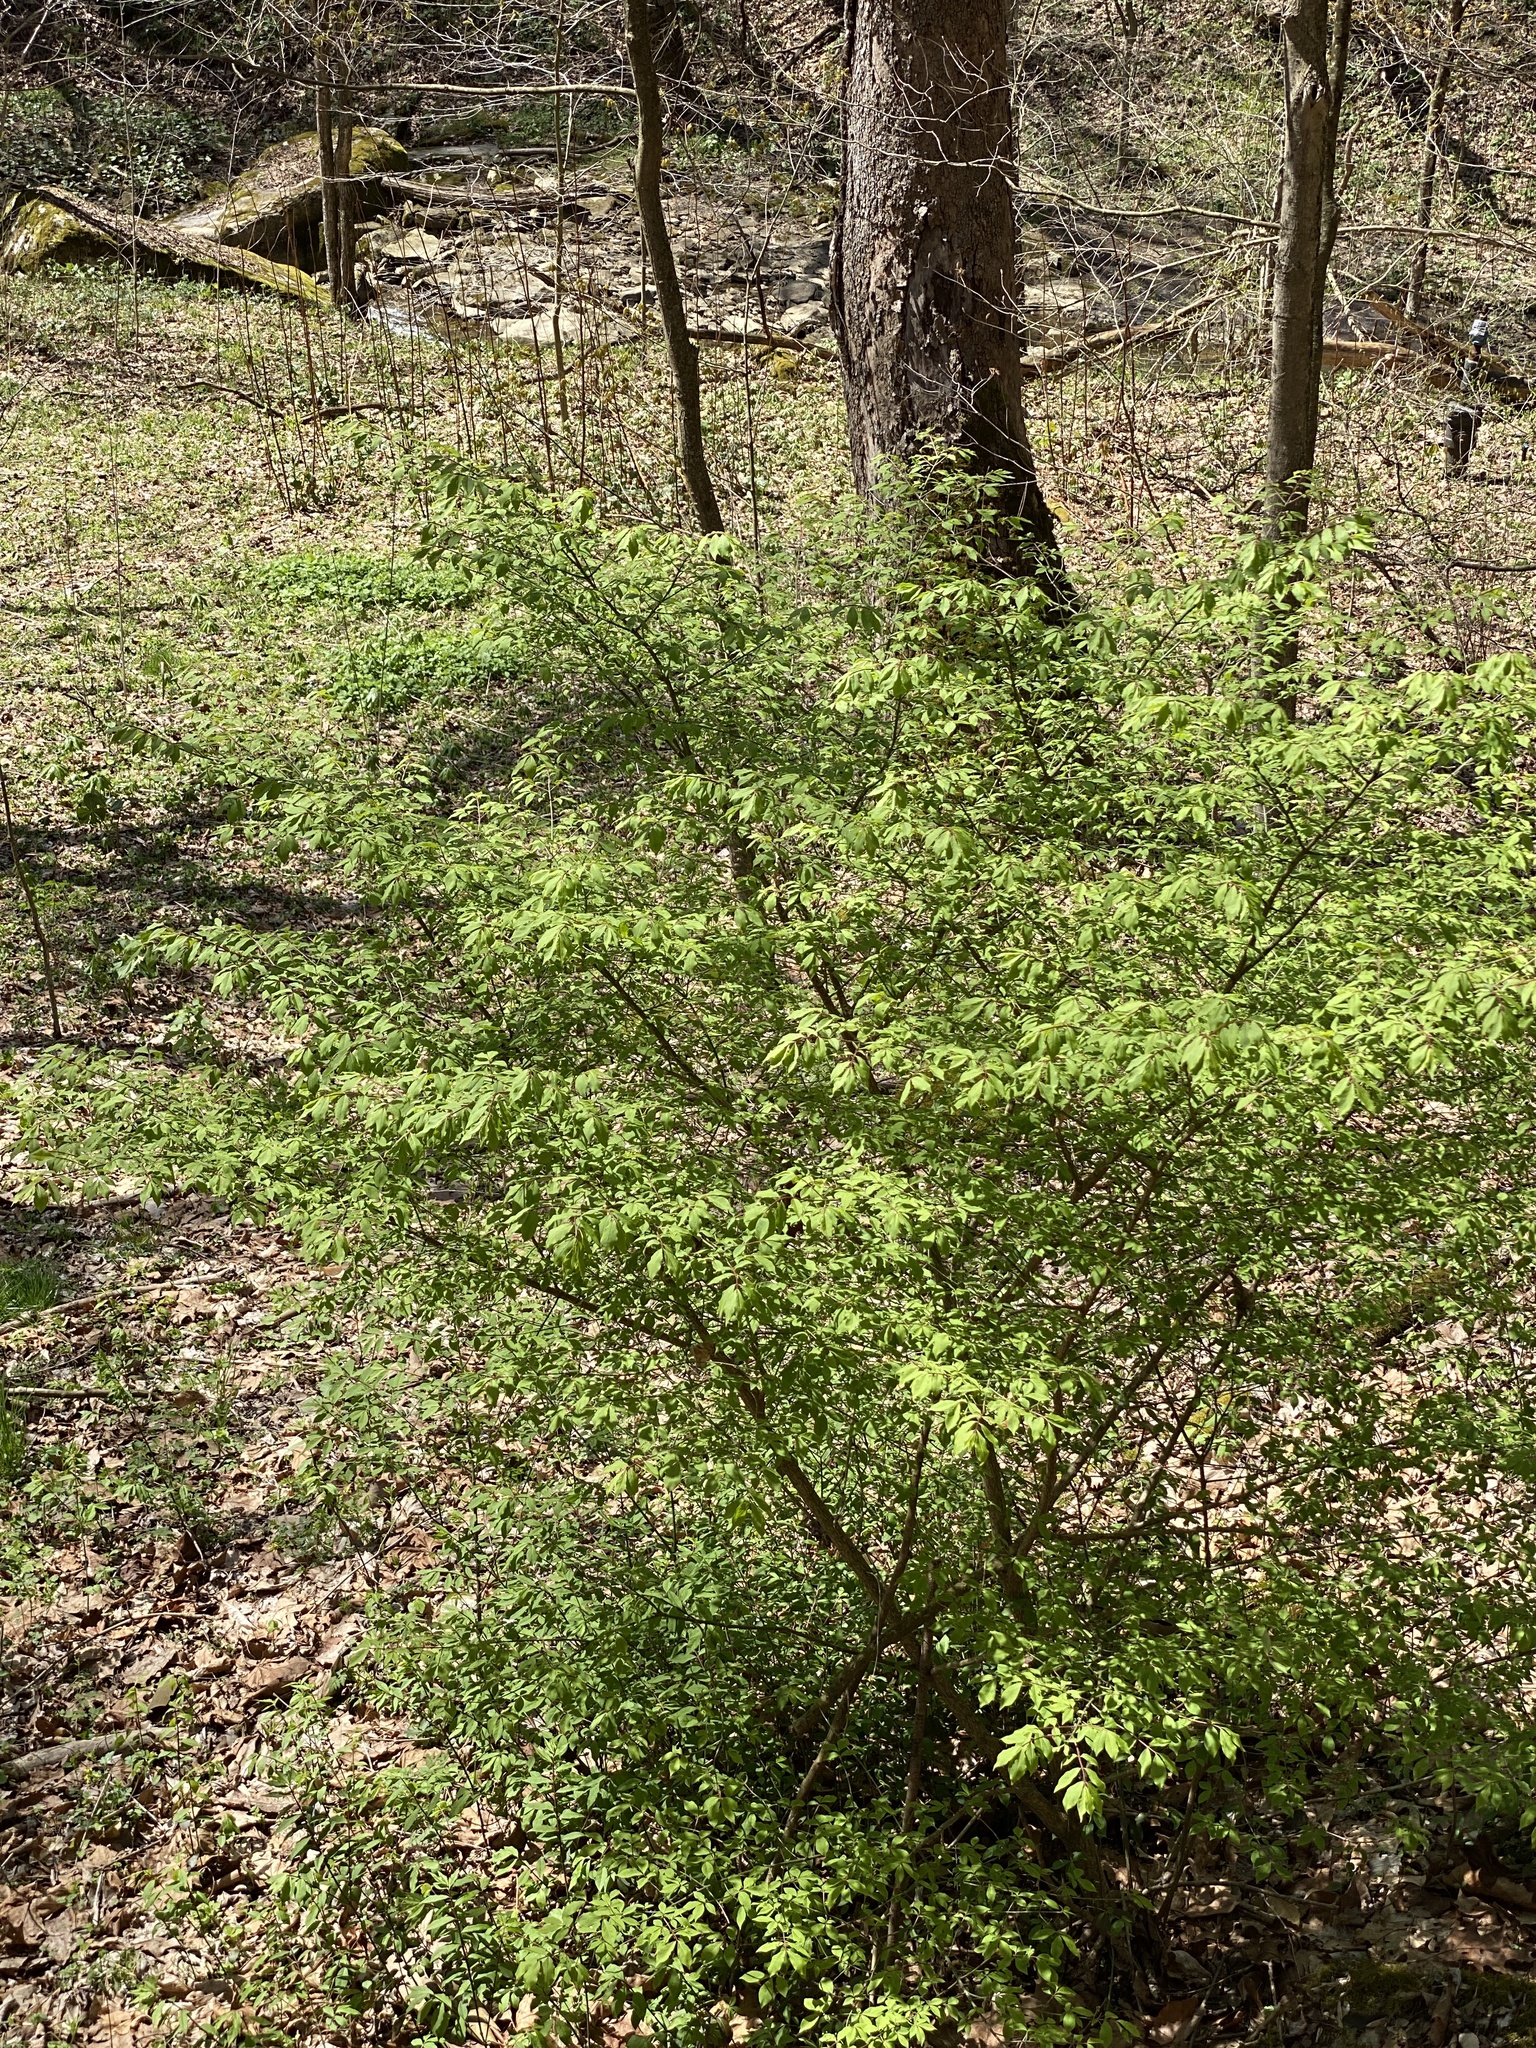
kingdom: Plantae
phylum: Tracheophyta
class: Magnoliopsida
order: Celastrales
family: Celastraceae
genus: Euonymus
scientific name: Euonymus alatus
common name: Winged euonymus
